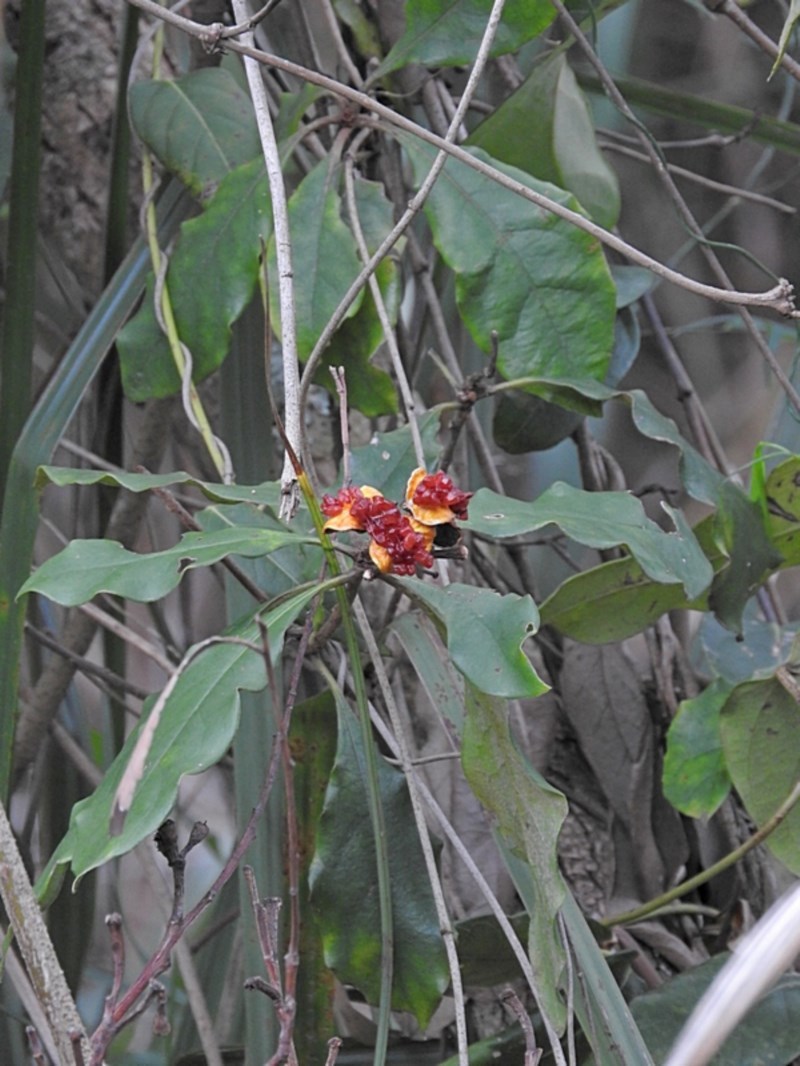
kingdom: Plantae
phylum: Tracheophyta
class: Magnoliopsida
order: Apiales
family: Pittosporaceae
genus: Pittosporum
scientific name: Pittosporum revolutum
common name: Brisbane-laurel
